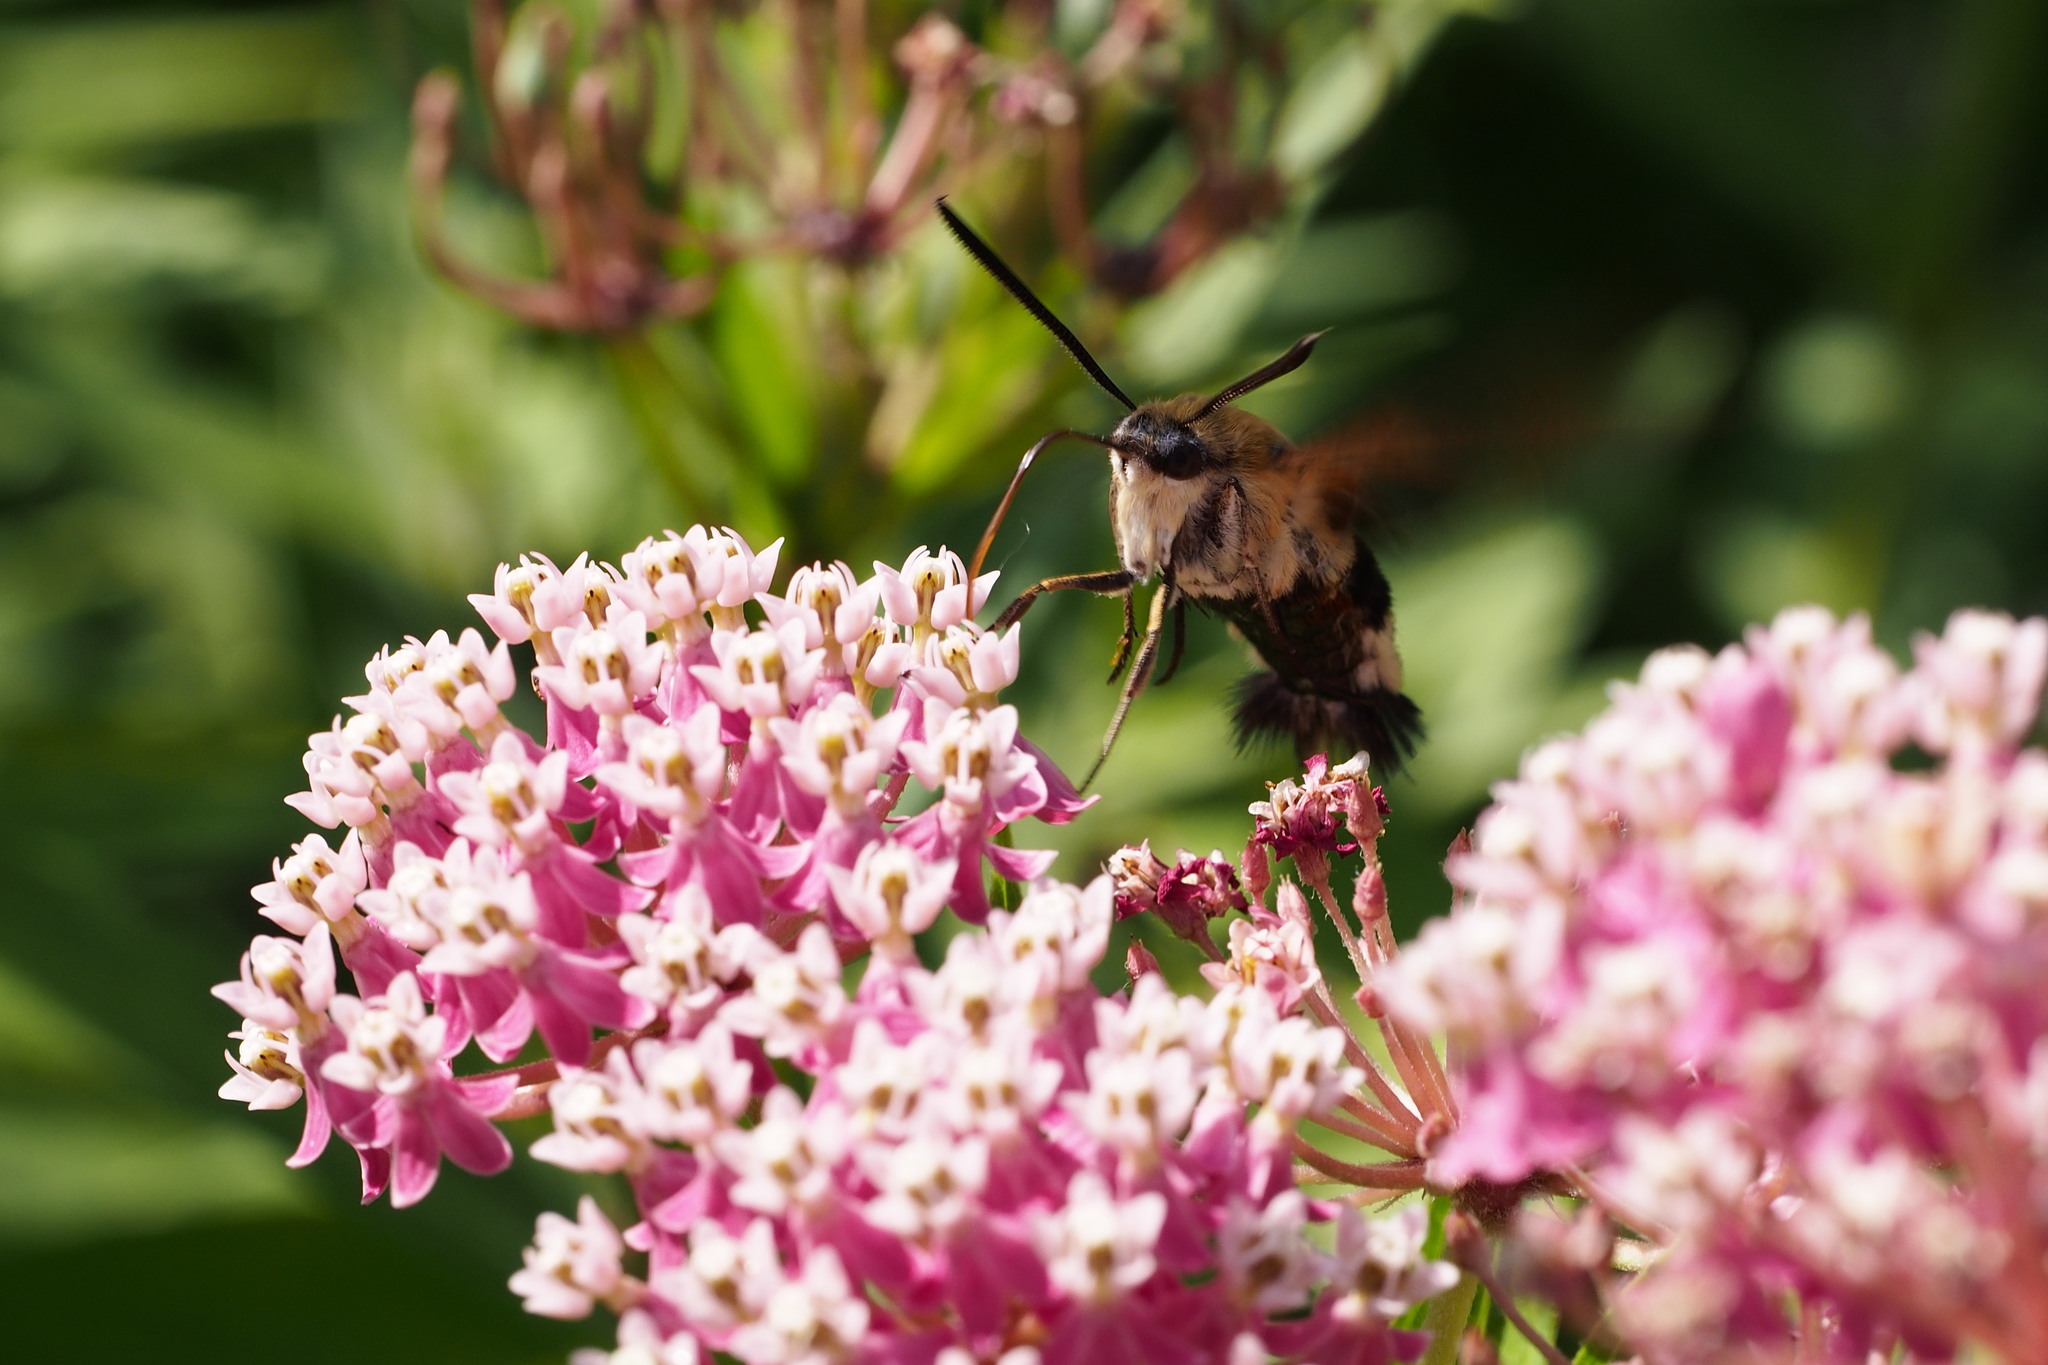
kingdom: Animalia
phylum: Arthropoda
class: Insecta
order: Lepidoptera
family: Sphingidae
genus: Hemaris
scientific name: Hemaris radians
